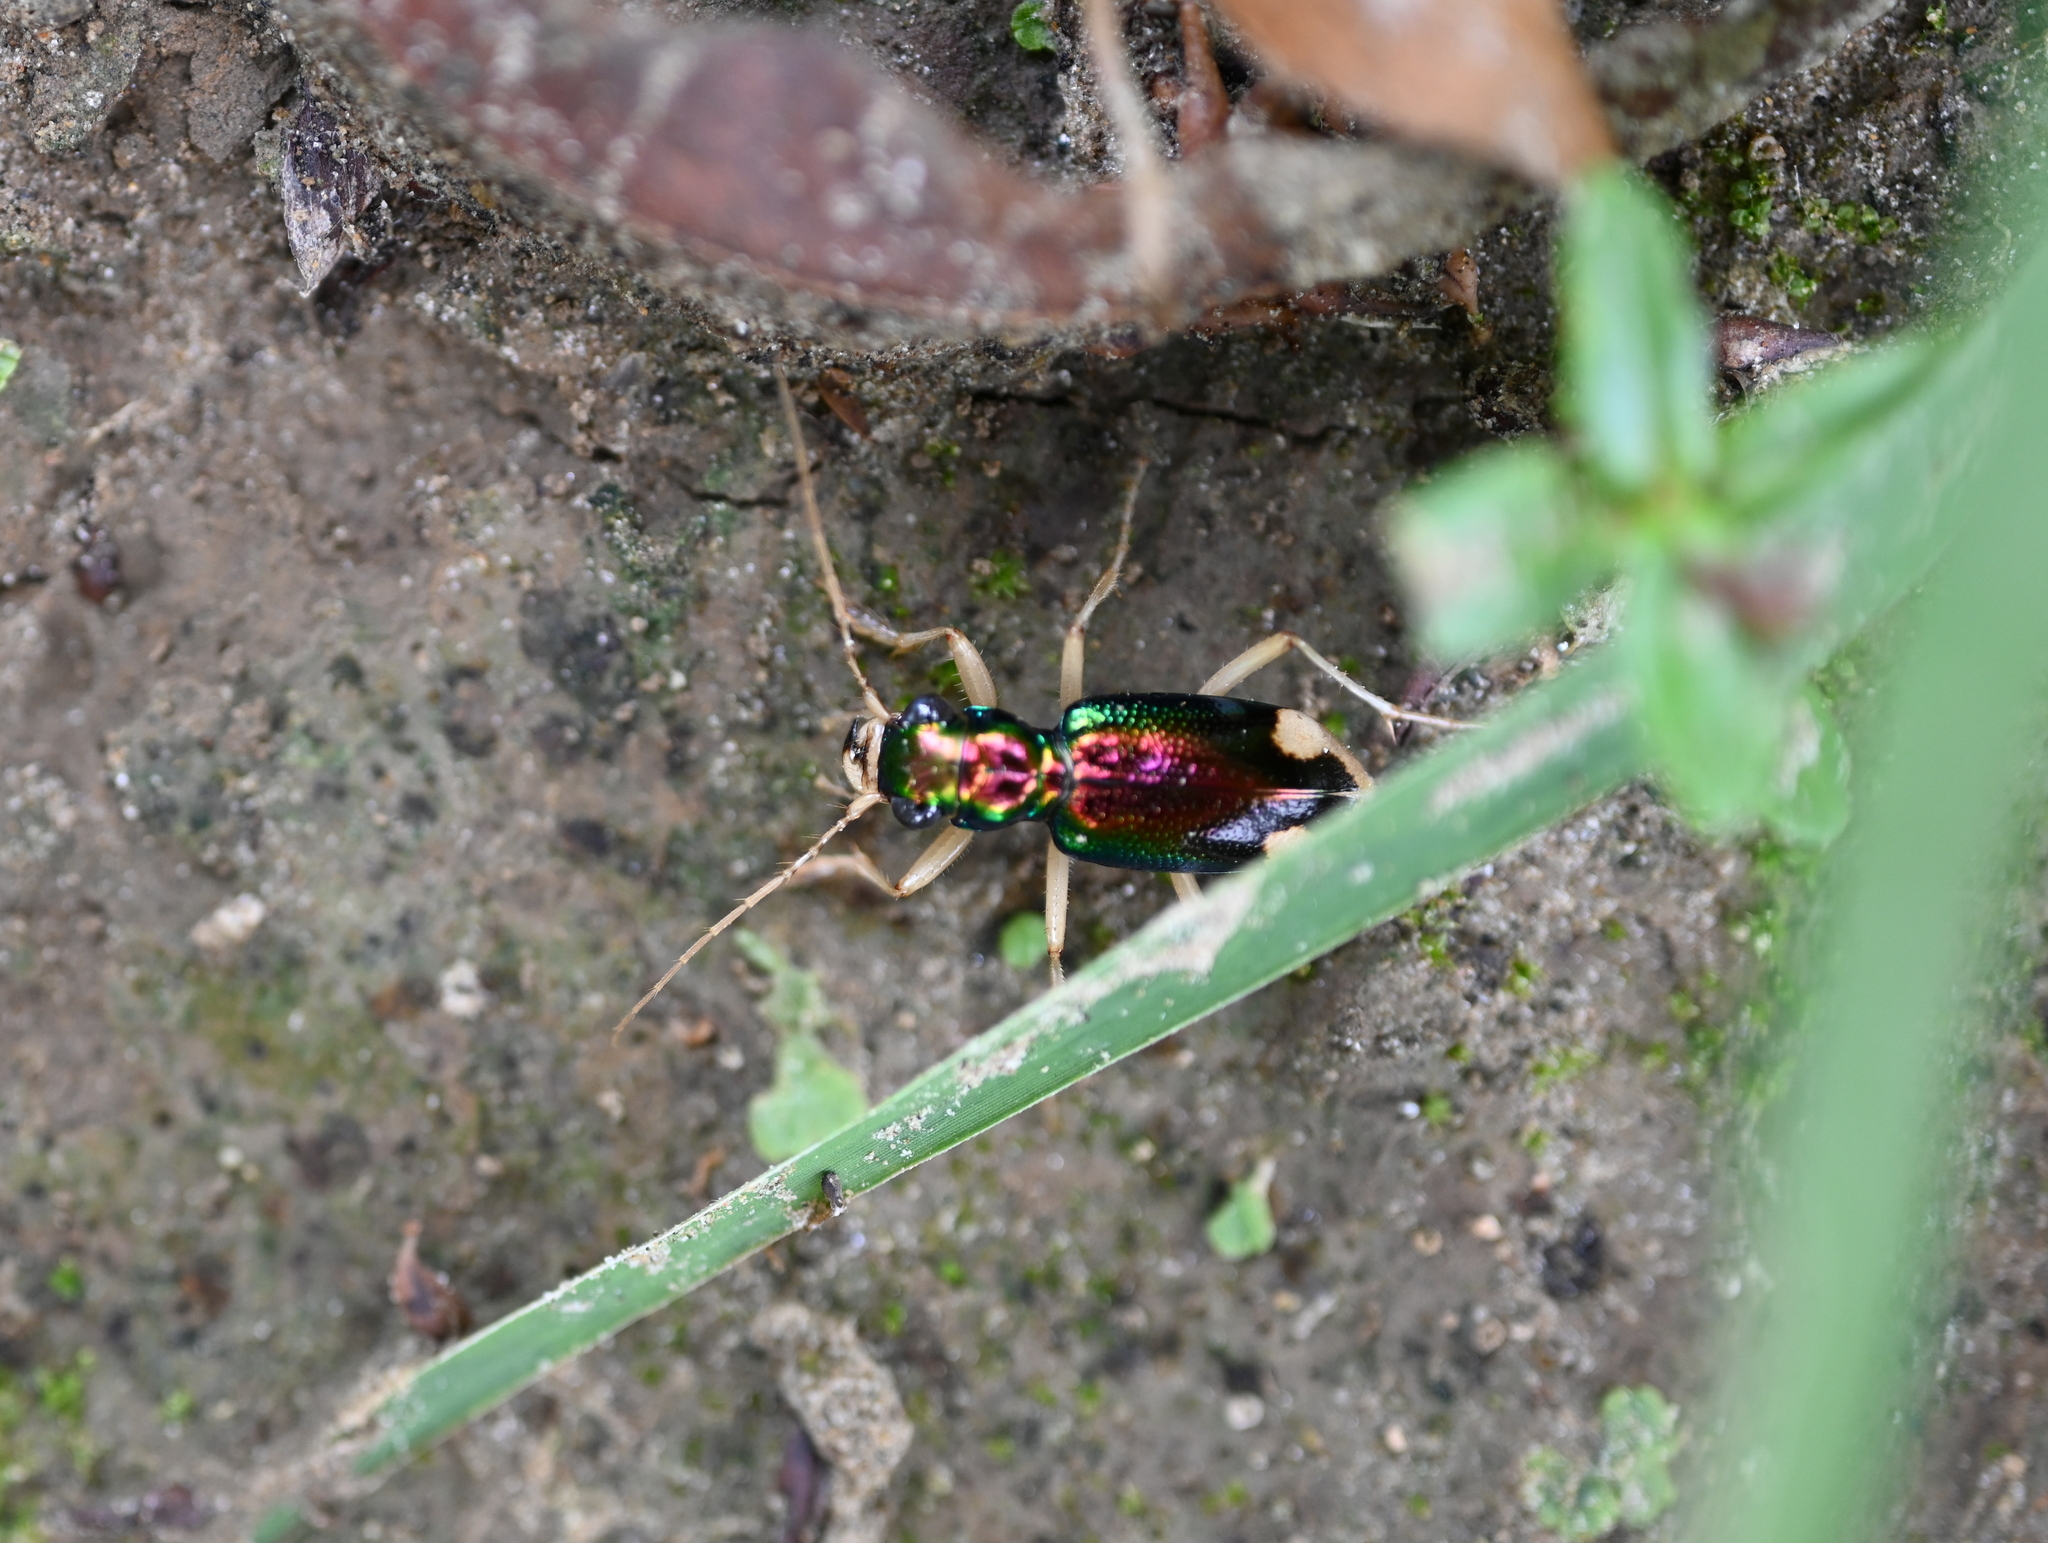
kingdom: Animalia
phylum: Arthropoda
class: Insecta
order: Coleoptera
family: Carabidae
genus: Tetracha
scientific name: Tetracha carolina
